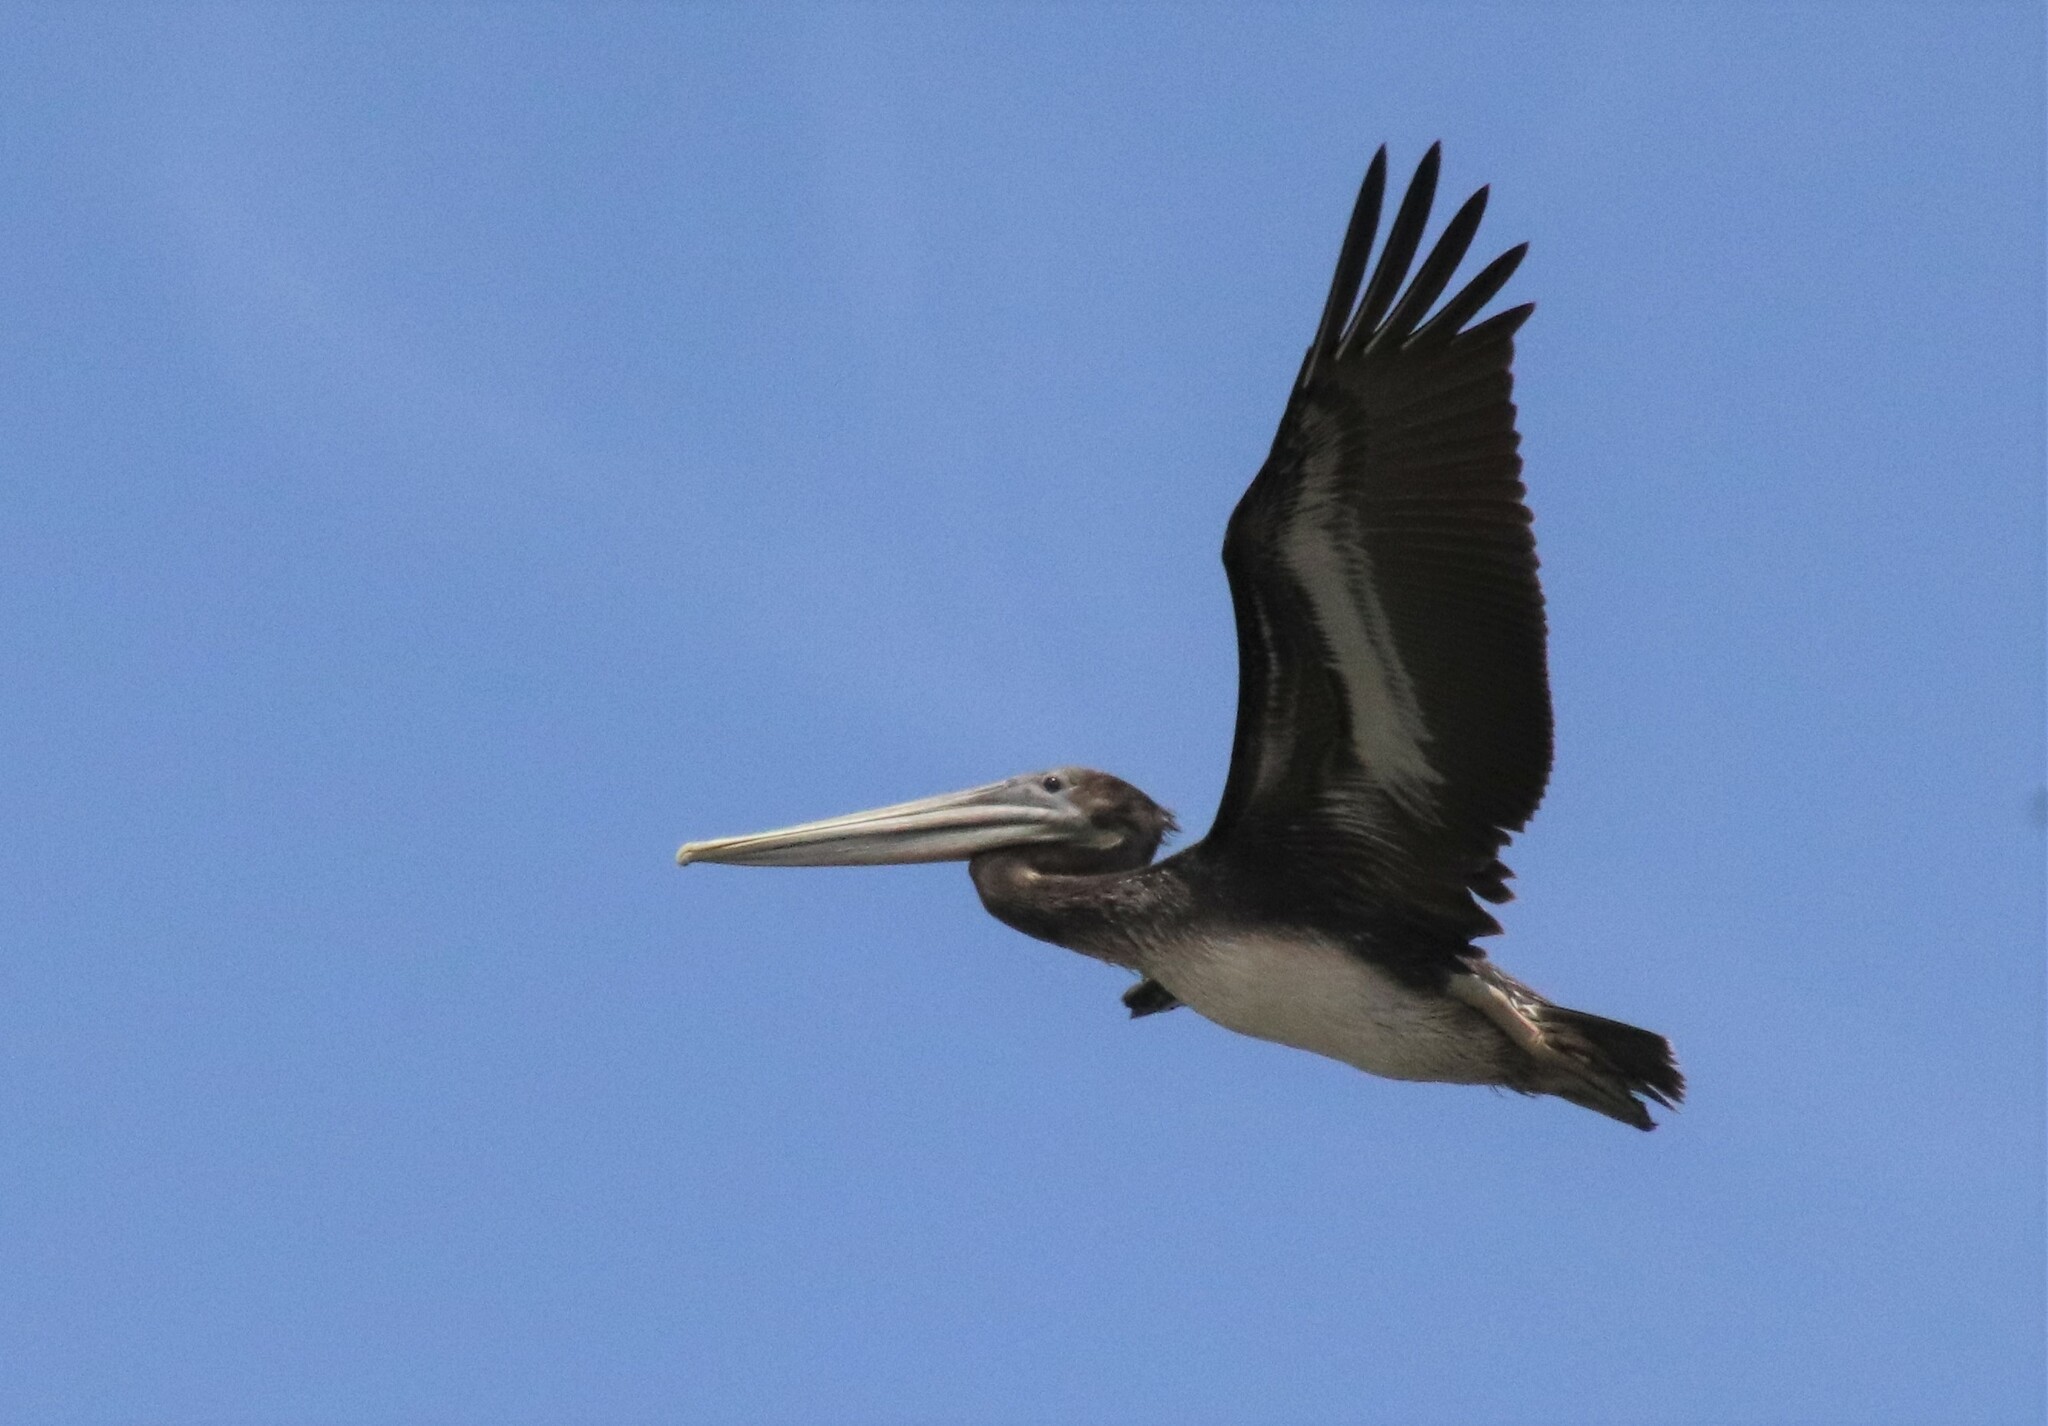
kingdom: Animalia
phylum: Chordata
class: Aves
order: Pelecaniformes
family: Pelecanidae
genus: Pelecanus
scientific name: Pelecanus occidentalis
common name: Brown pelican
